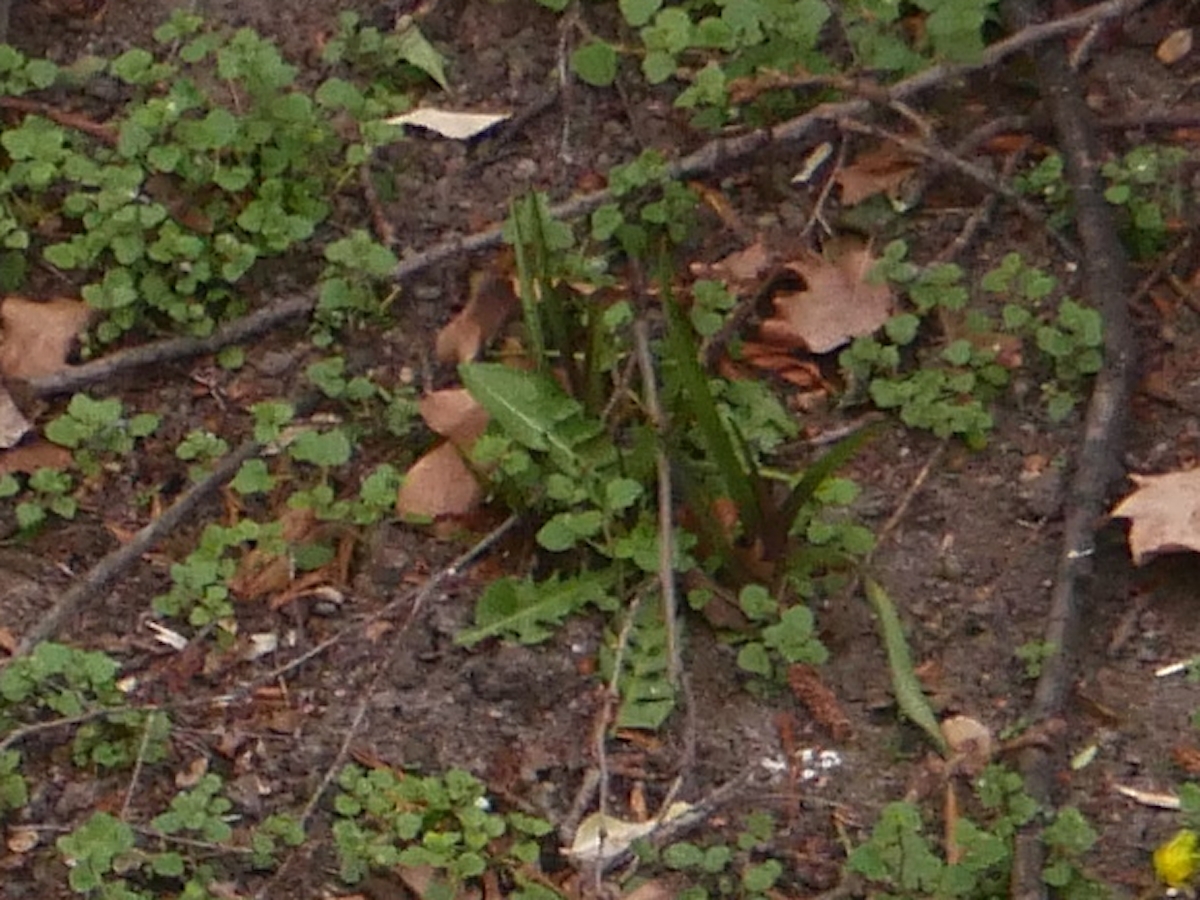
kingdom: Plantae
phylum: Tracheophyta
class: Magnoliopsida
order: Asterales
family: Asteraceae
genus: Taraxacum
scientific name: Taraxacum officinale
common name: Common dandelion
